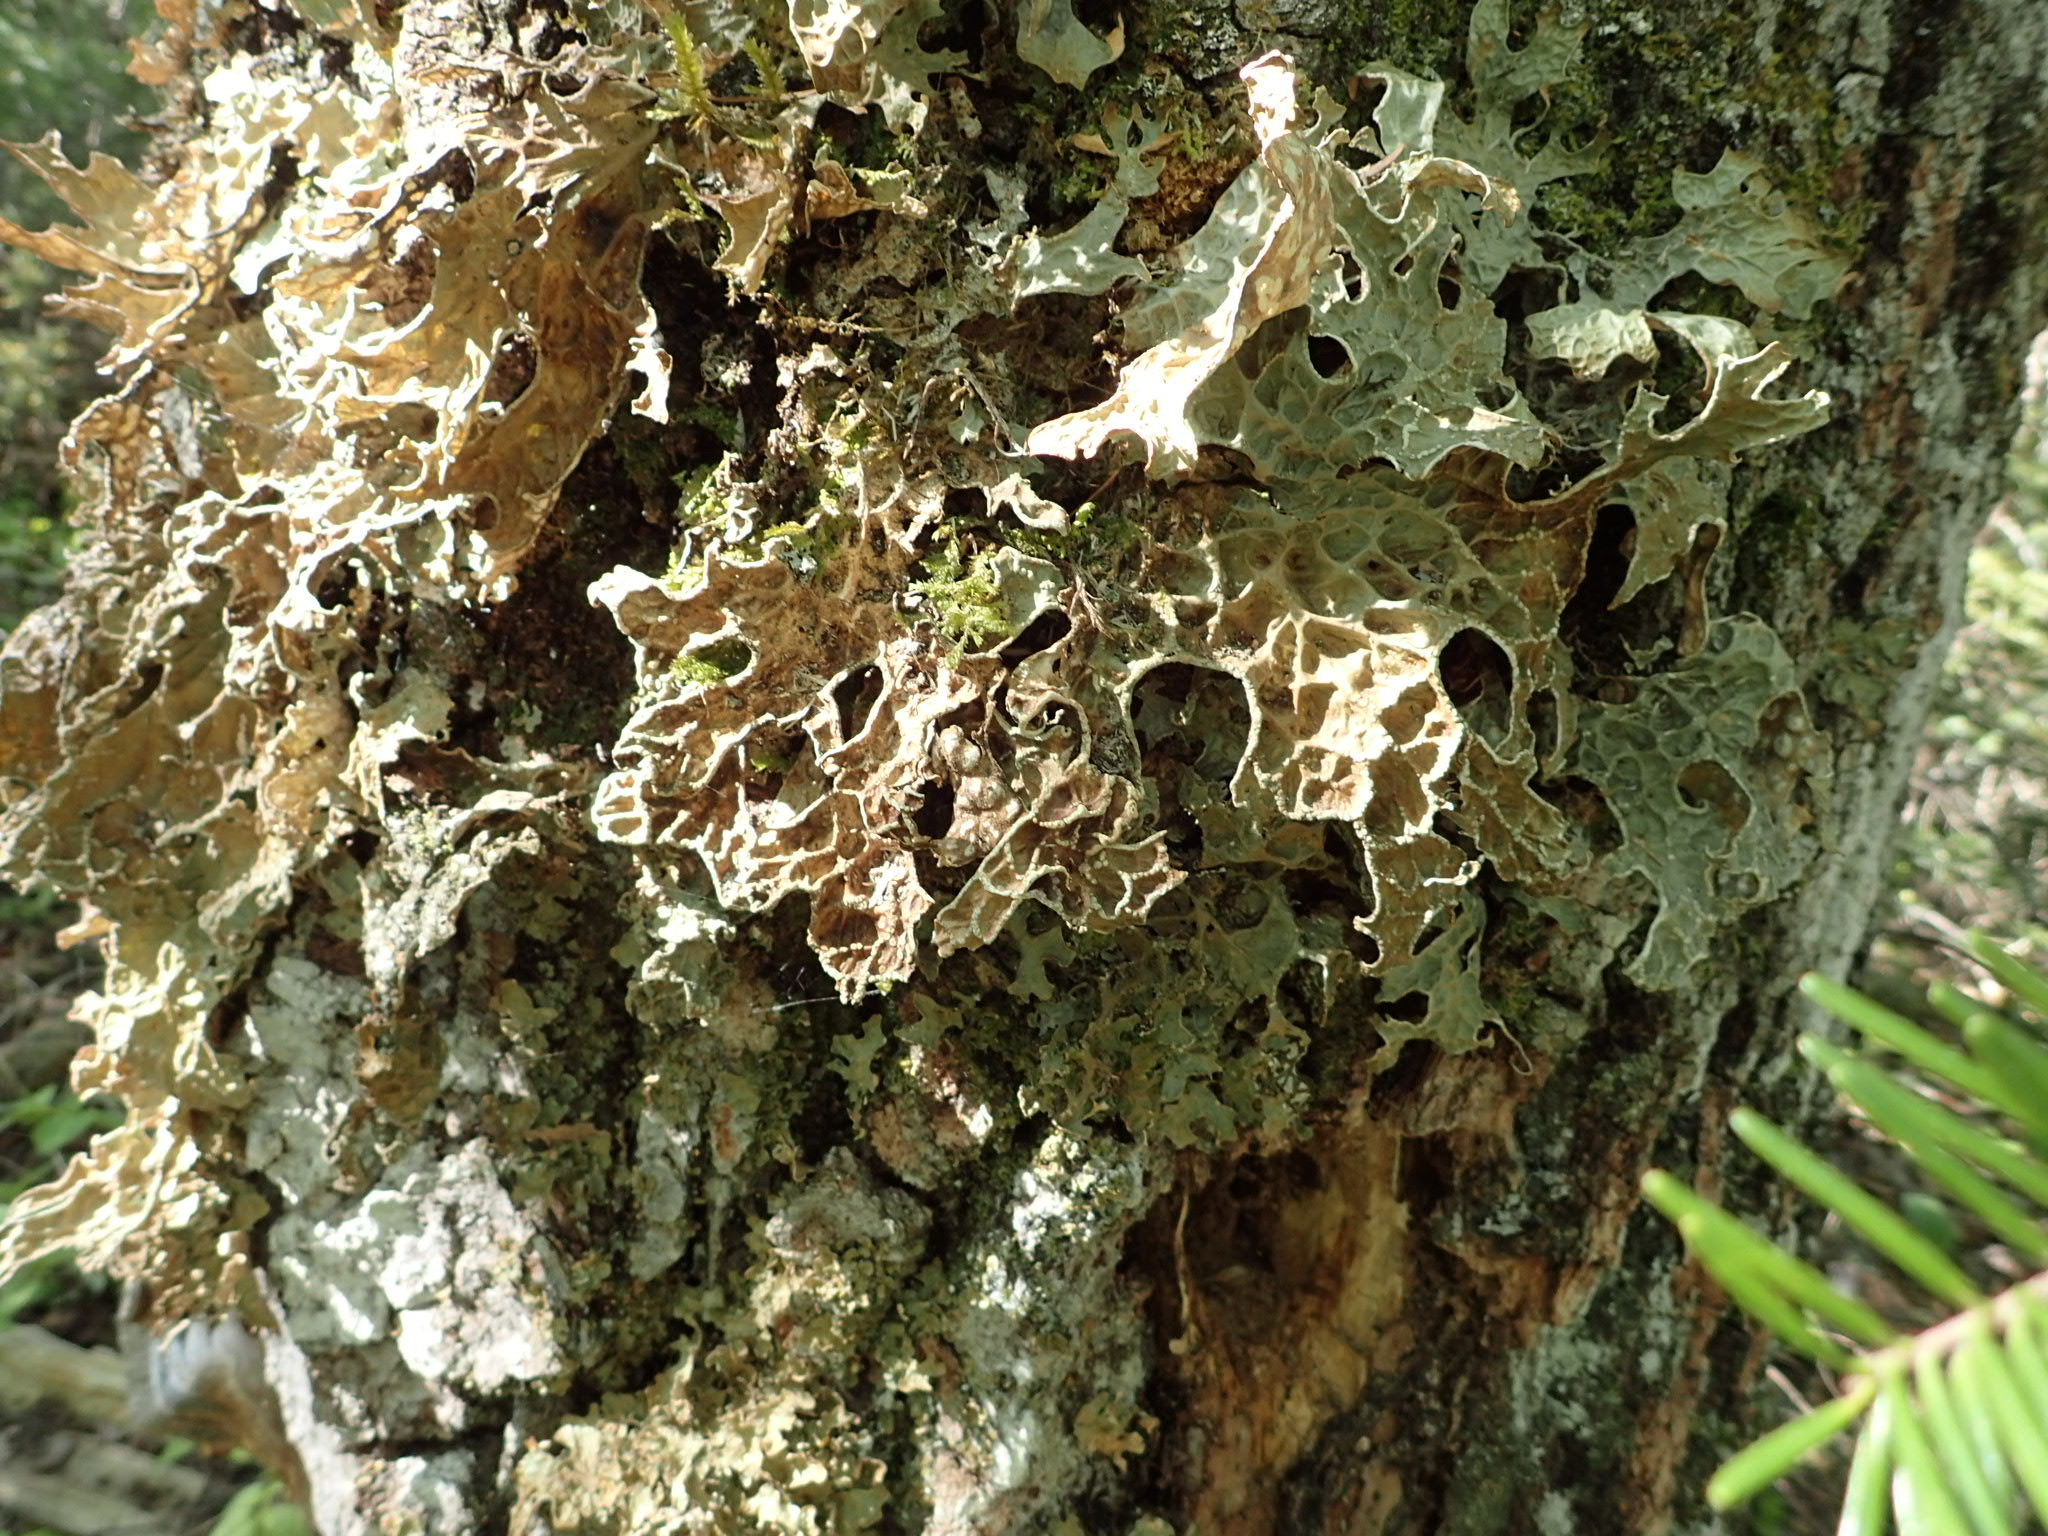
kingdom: Fungi
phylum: Ascomycota
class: Lecanoromycetes
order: Peltigerales
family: Lobariaceae
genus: Lobaria
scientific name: Lobaria pulmonaria
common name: Lungwort
